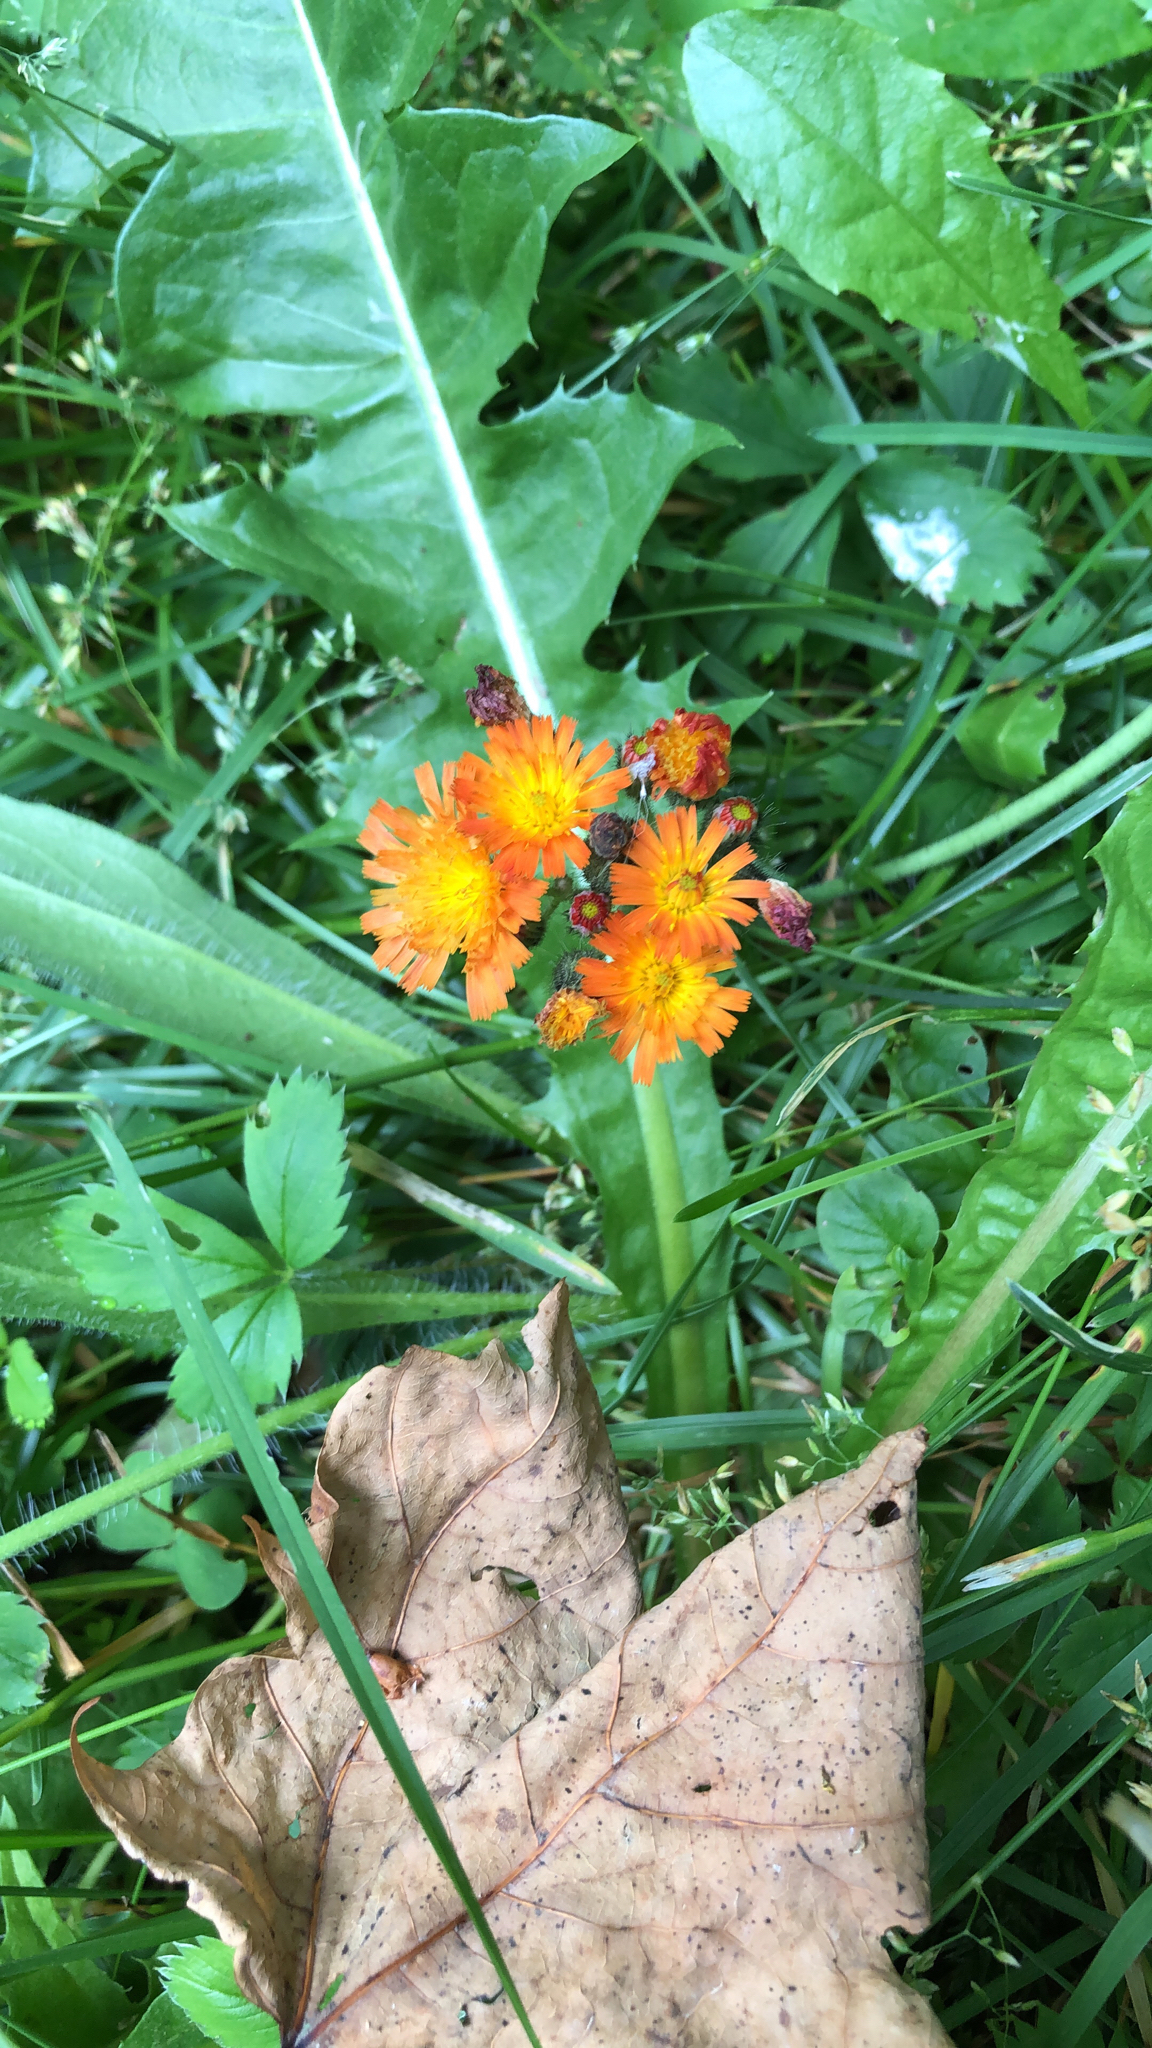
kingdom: Plantae
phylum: Tracheophyta
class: Magnoliopsida
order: Asterales
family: Asteraceae
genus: Pilosella
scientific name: Pilosella aurantiaca
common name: Fox-and-cubs
